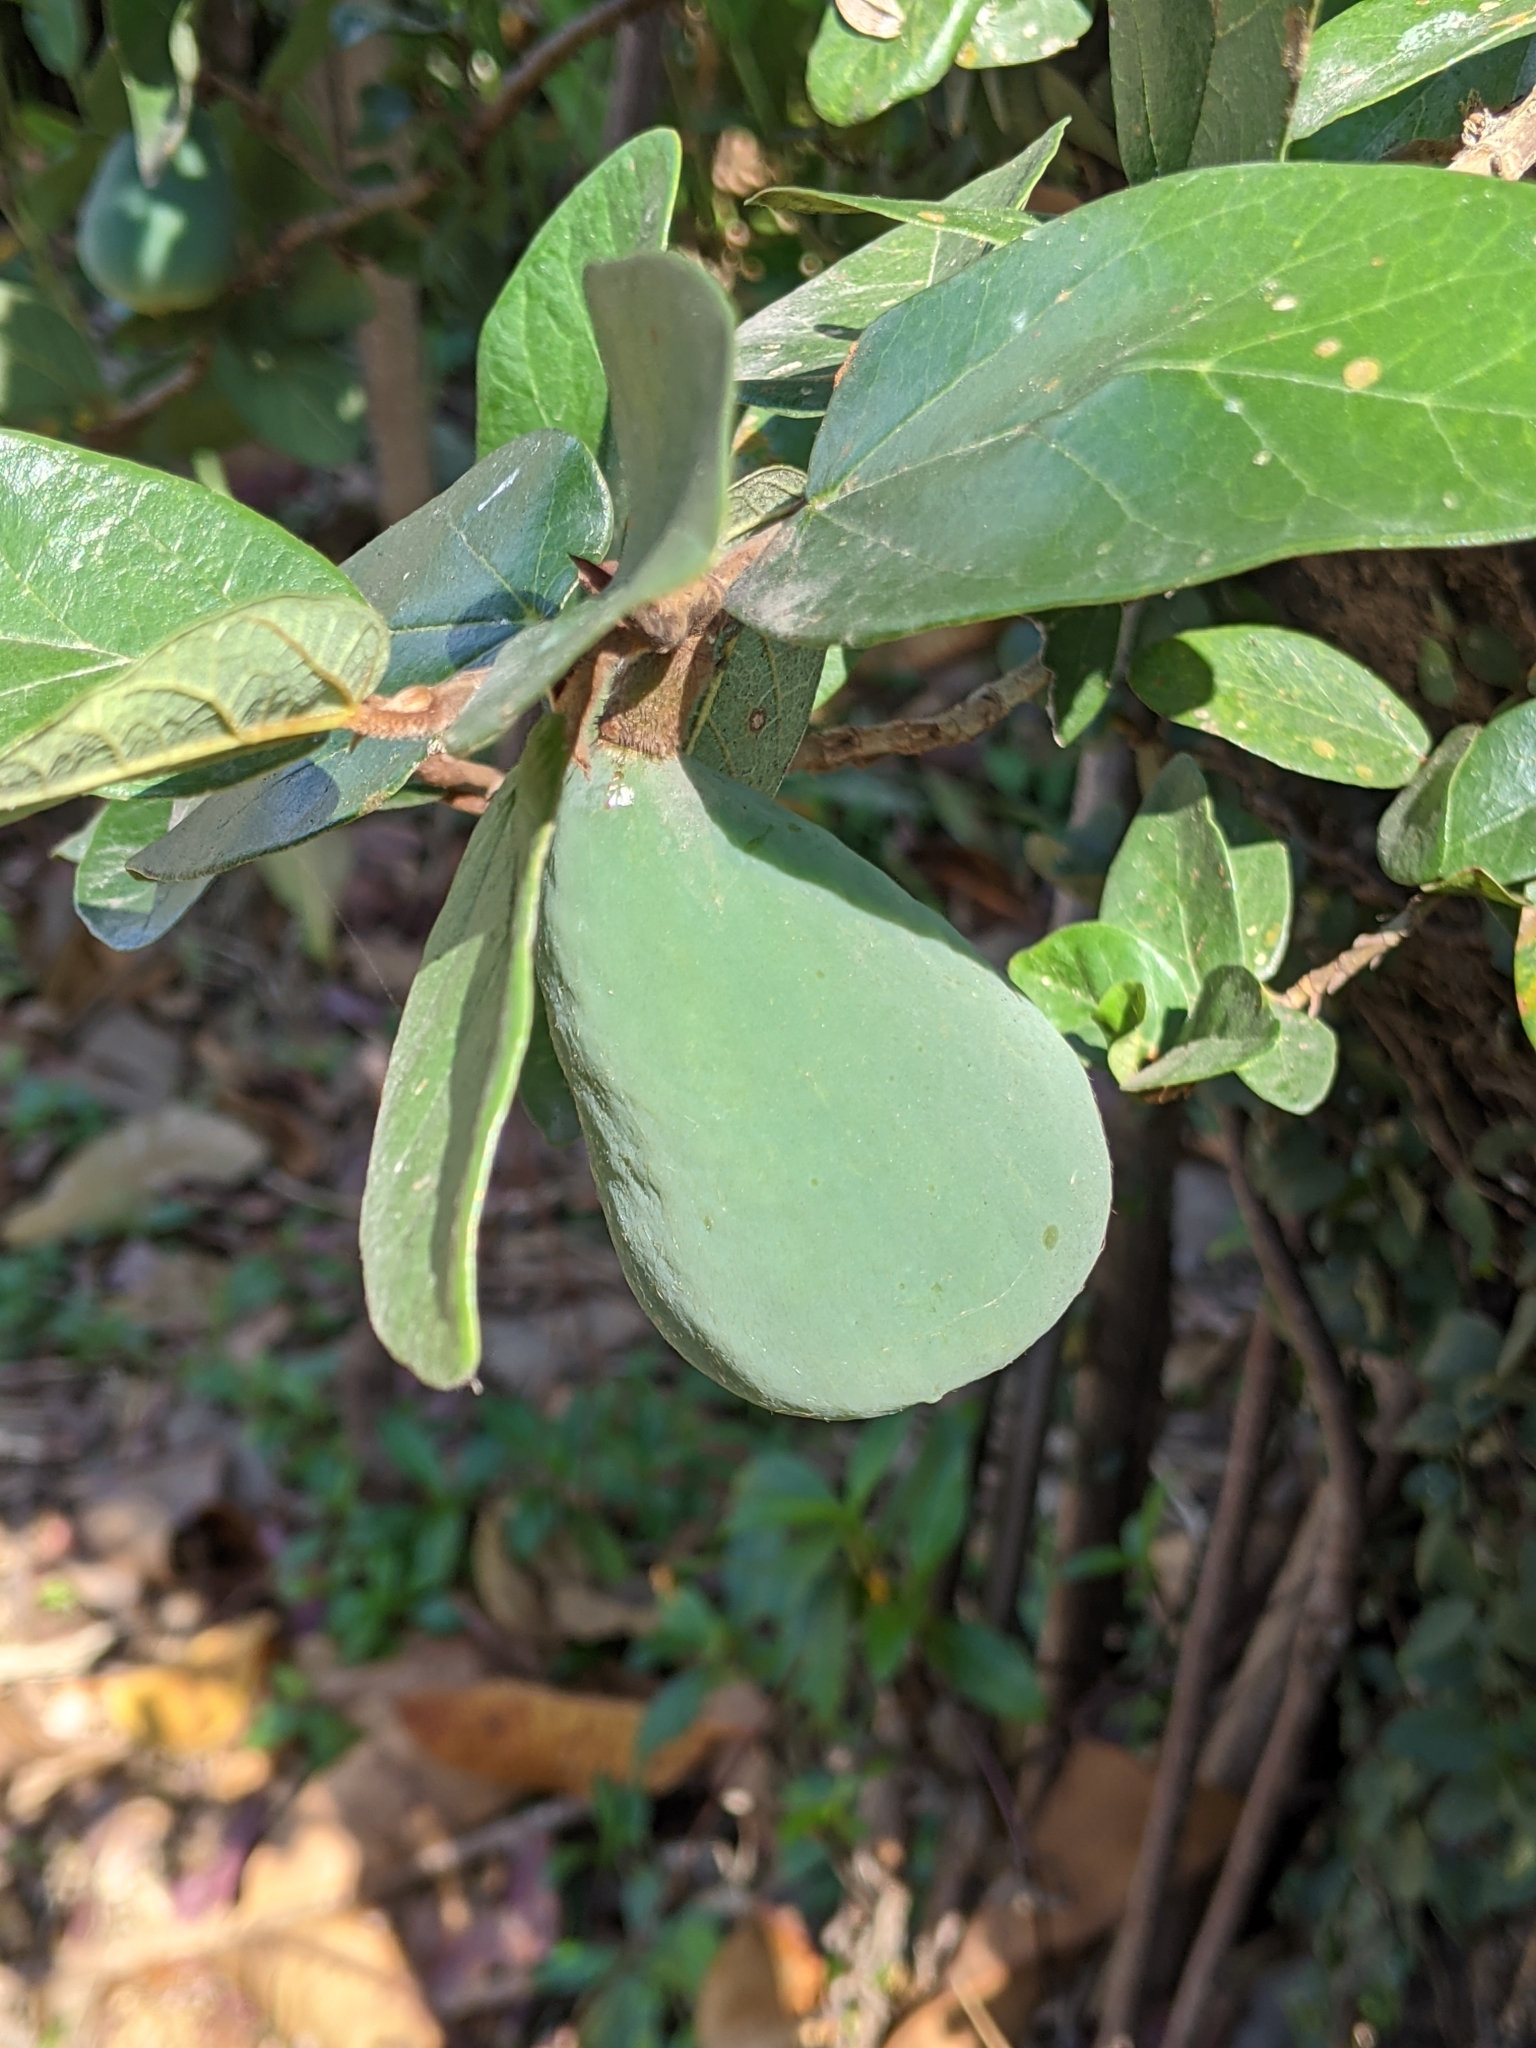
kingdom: Plantae
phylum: Tracheophyta
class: Magnoliopsida
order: Rosales
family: Moraceae
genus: Ficus
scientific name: Ficus pumila
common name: Climbingfig
